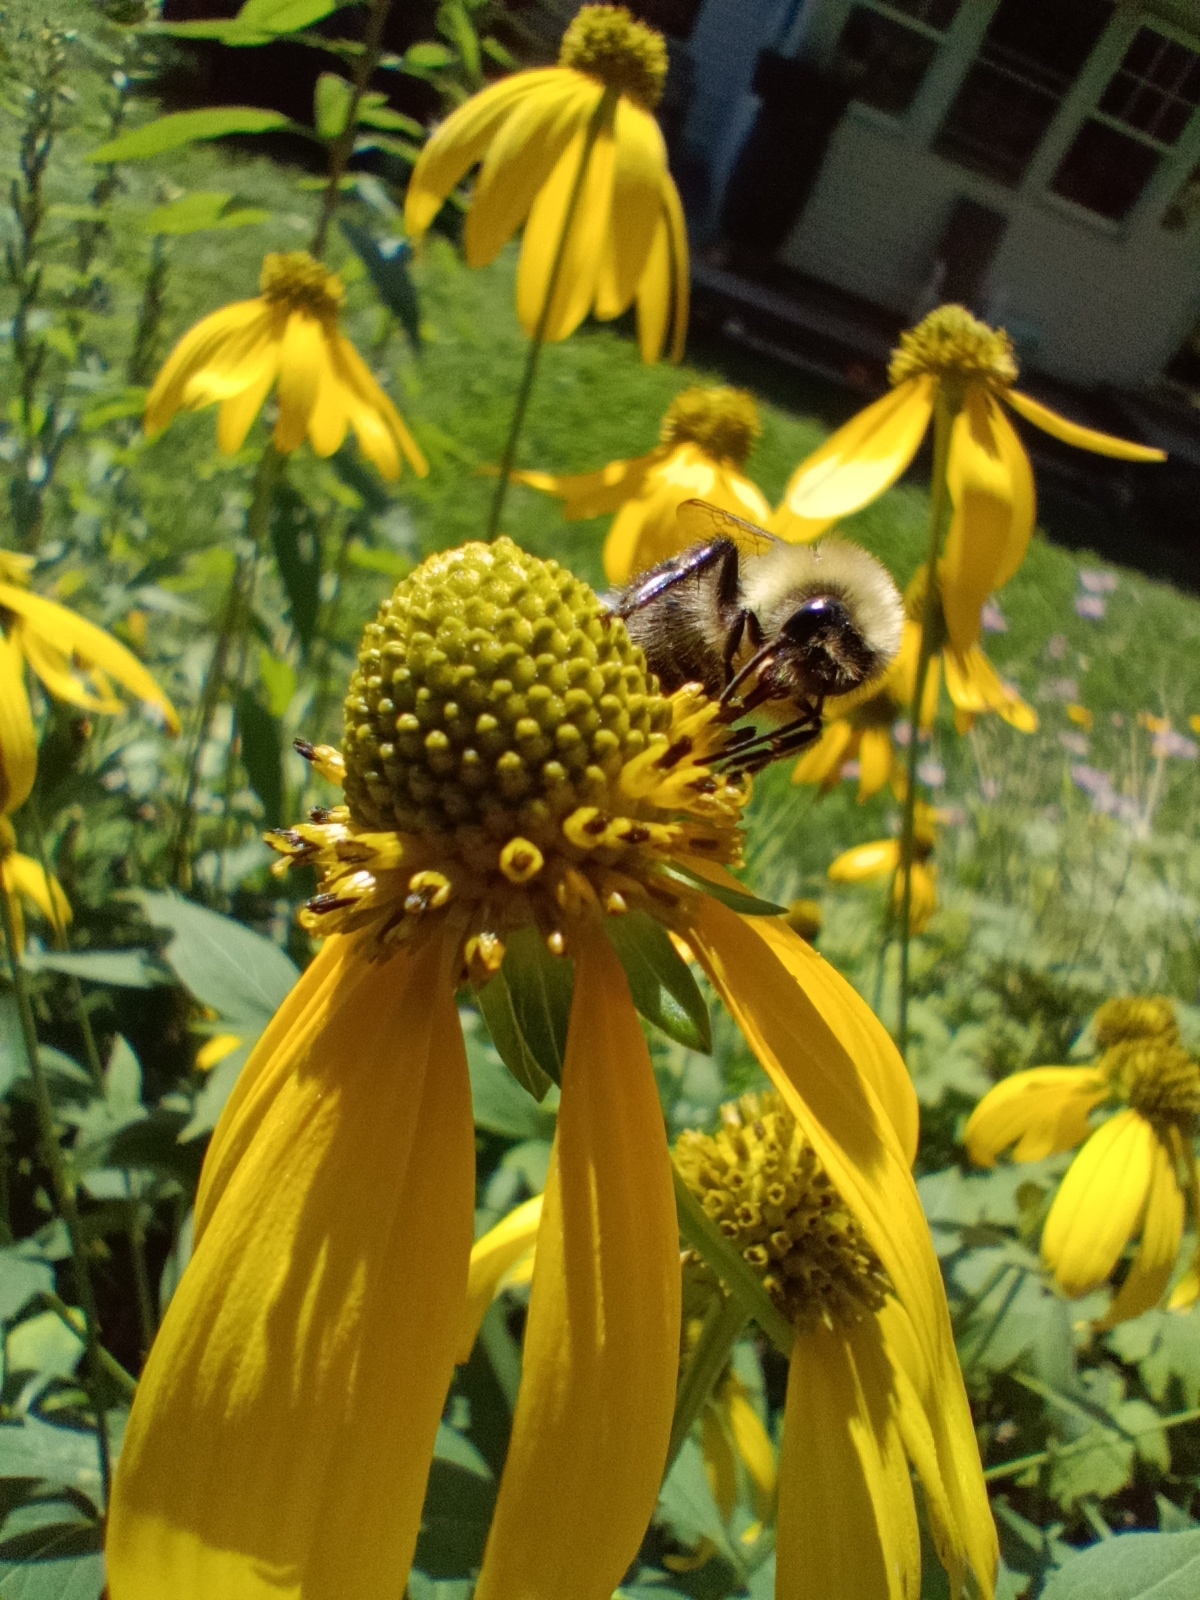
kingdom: Animalia
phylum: Arthropoda
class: Insecta
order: Hymenoptera
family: Apidae
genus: Bombus
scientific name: Bombus impatiens
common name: Common eastern bumble bee
